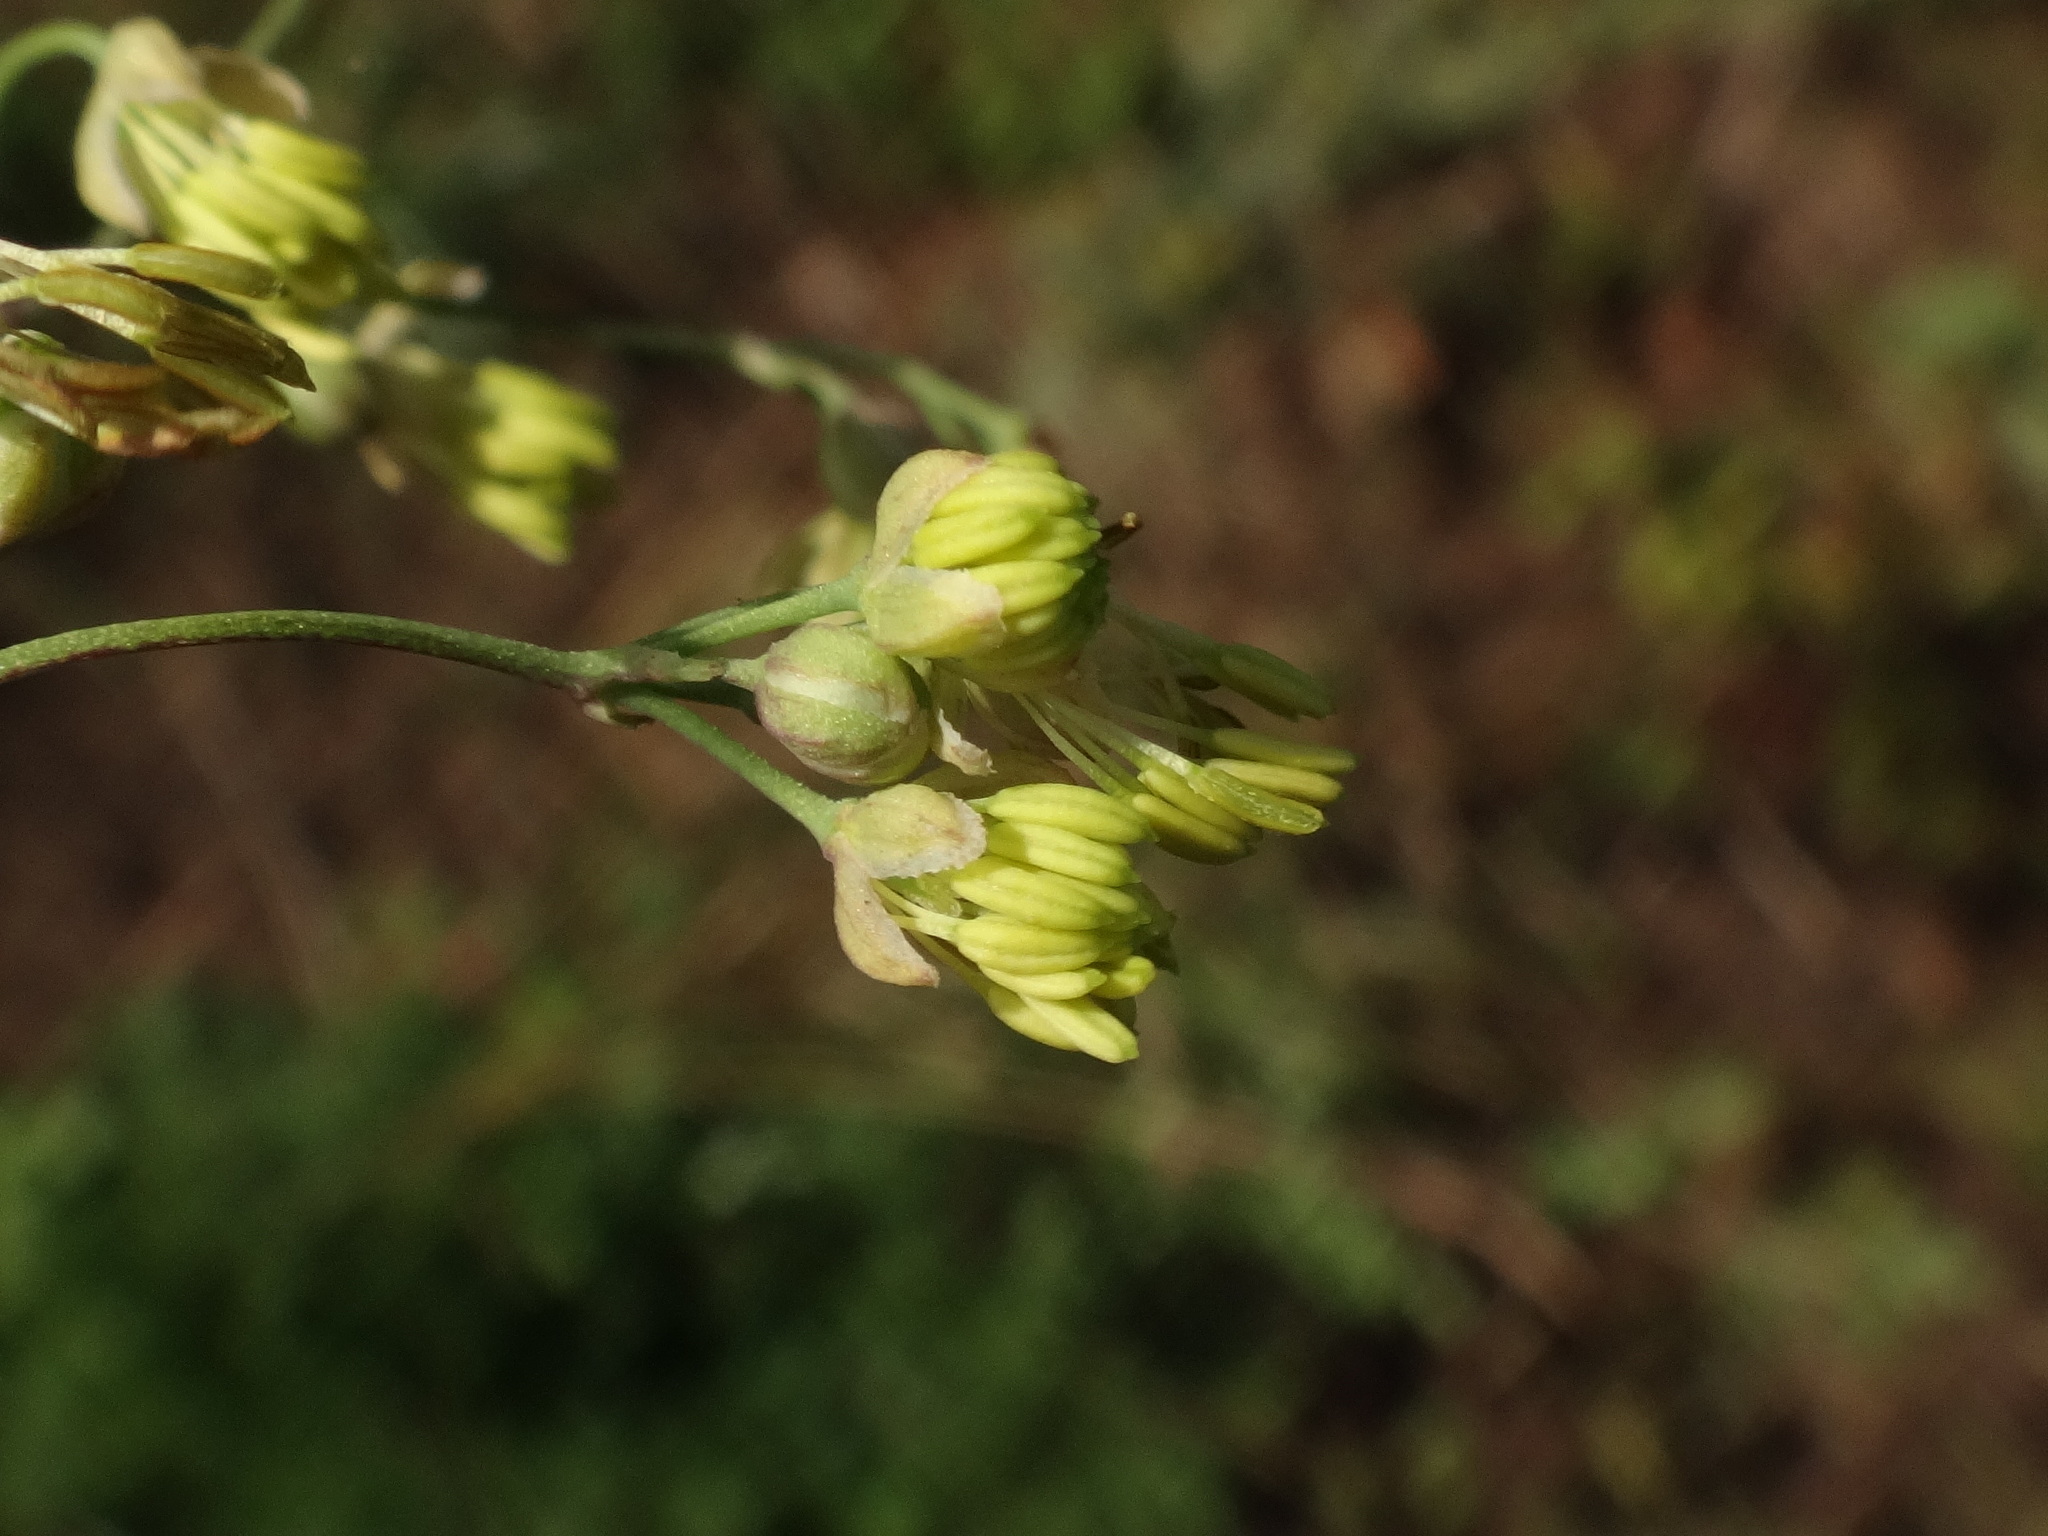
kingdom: Plantae
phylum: Tracheophyta
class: Magnoliopsida
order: Ranunculales
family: Ranunculaceae
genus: Thalictrum
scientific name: Thalictrum minus
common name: Lesser meadow-rue
